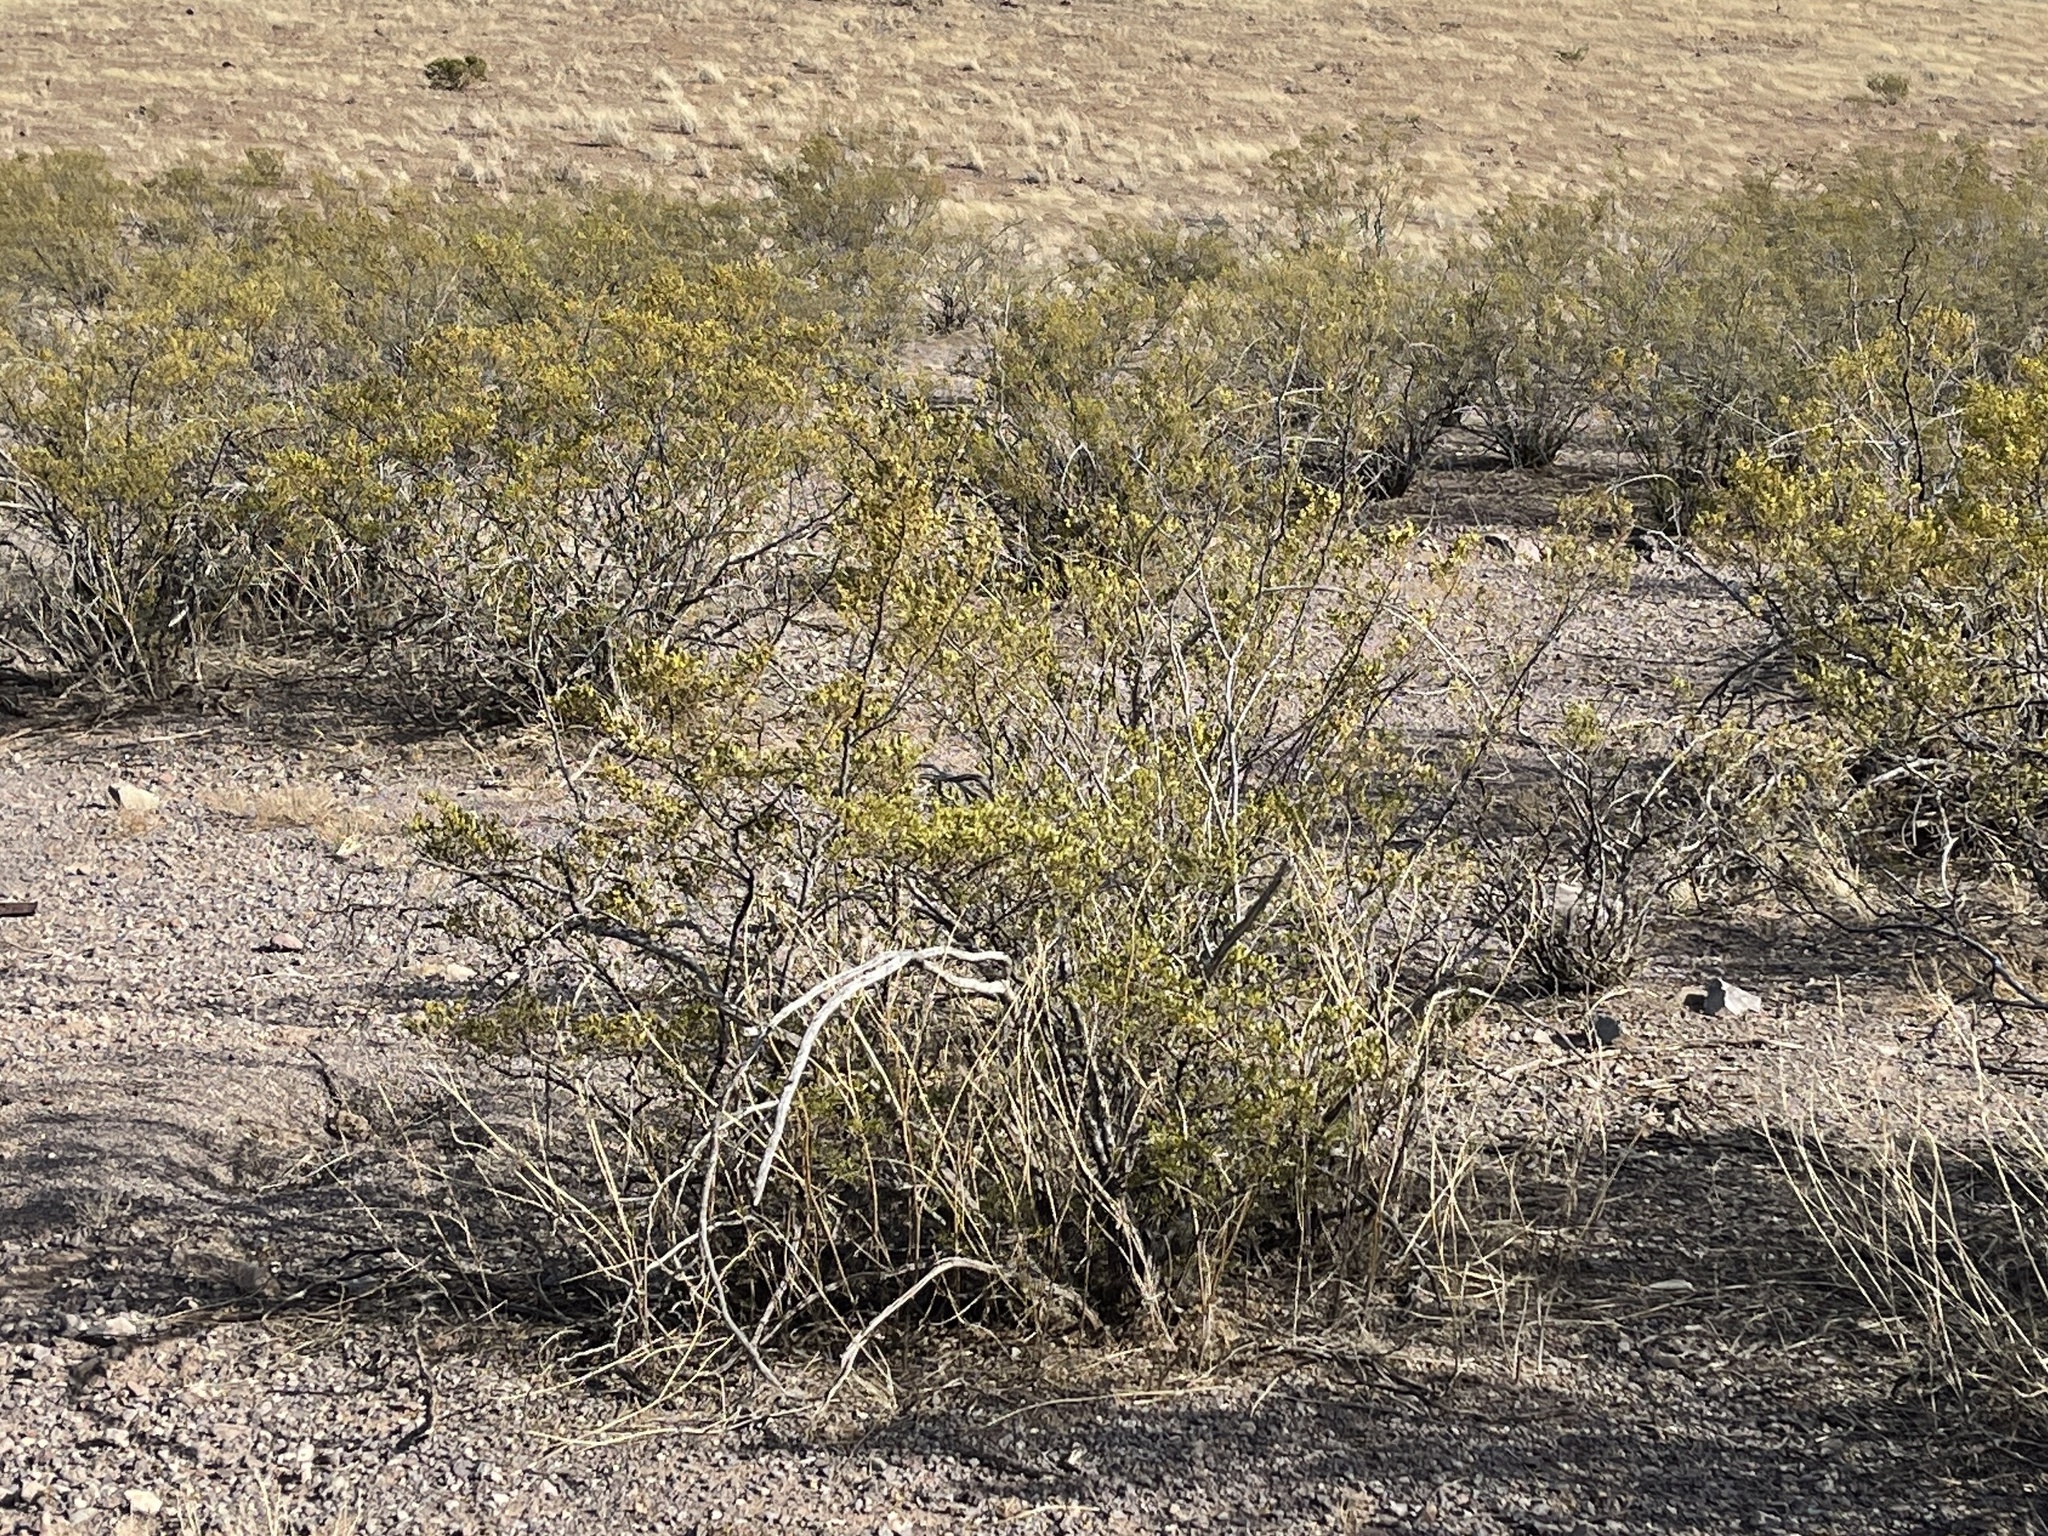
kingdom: Plantae
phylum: Tracheophyta
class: Magnoliopsida
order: Zygophyllales
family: Zygophyllaceae
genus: Larrea
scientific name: Larrea tridentata
